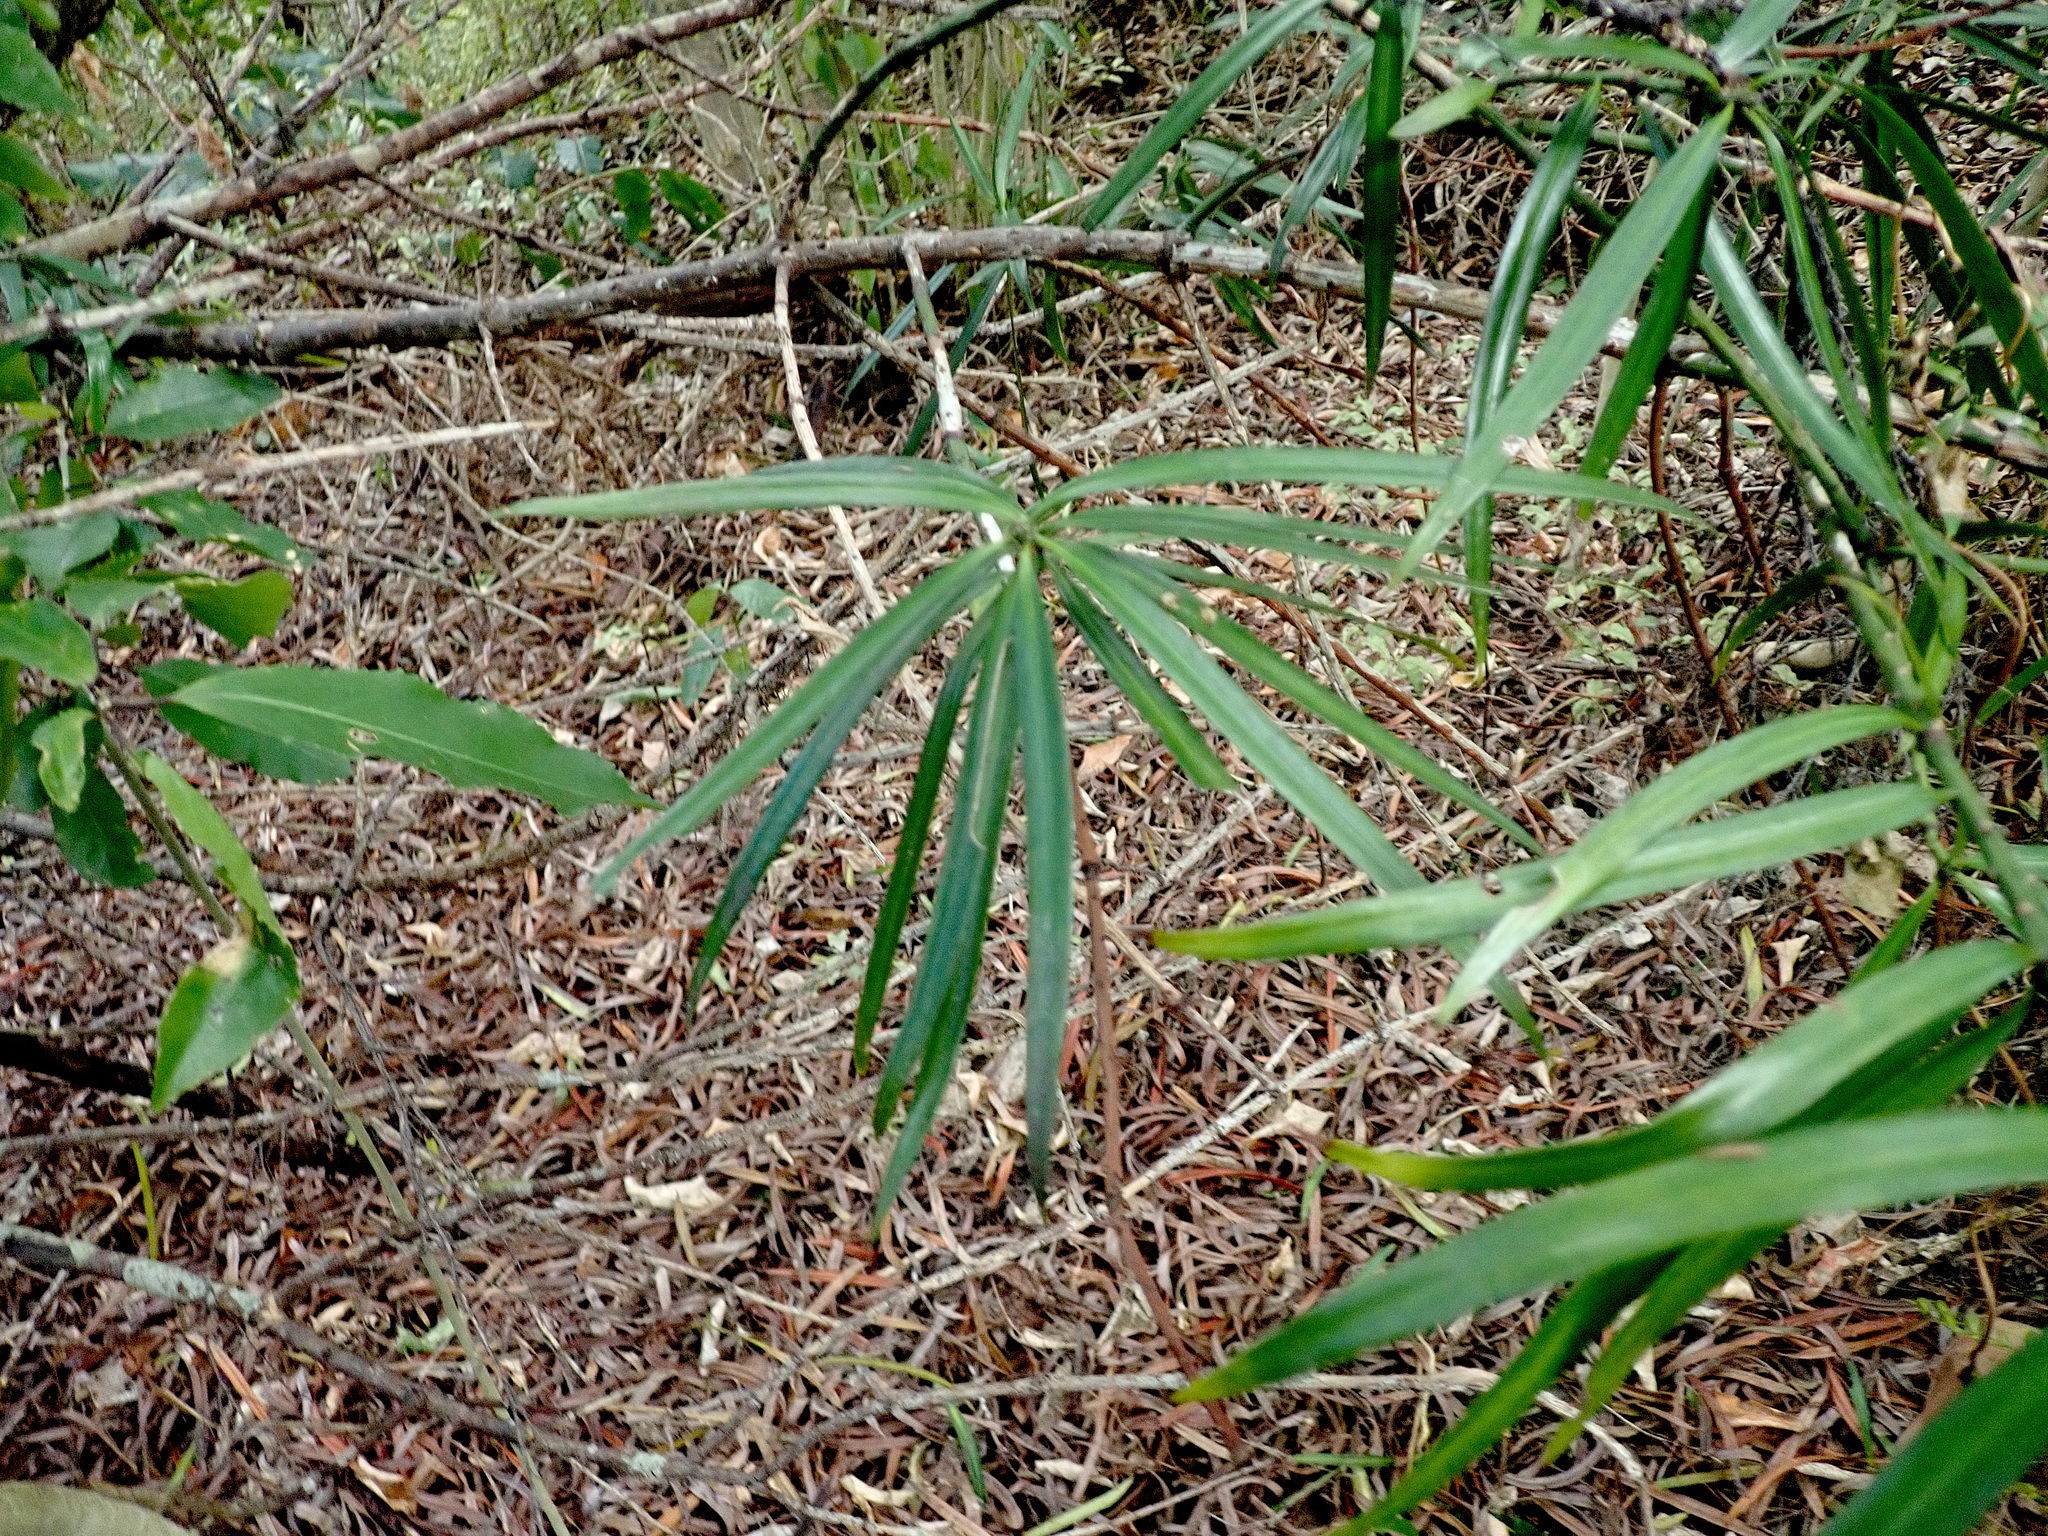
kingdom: Plantae
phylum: Tracheophyta
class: Pinopsida
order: Pinales
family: Podocarpaceae
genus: Podocarpus
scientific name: Podocarpus henkelii
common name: Henkel's yellowwood
